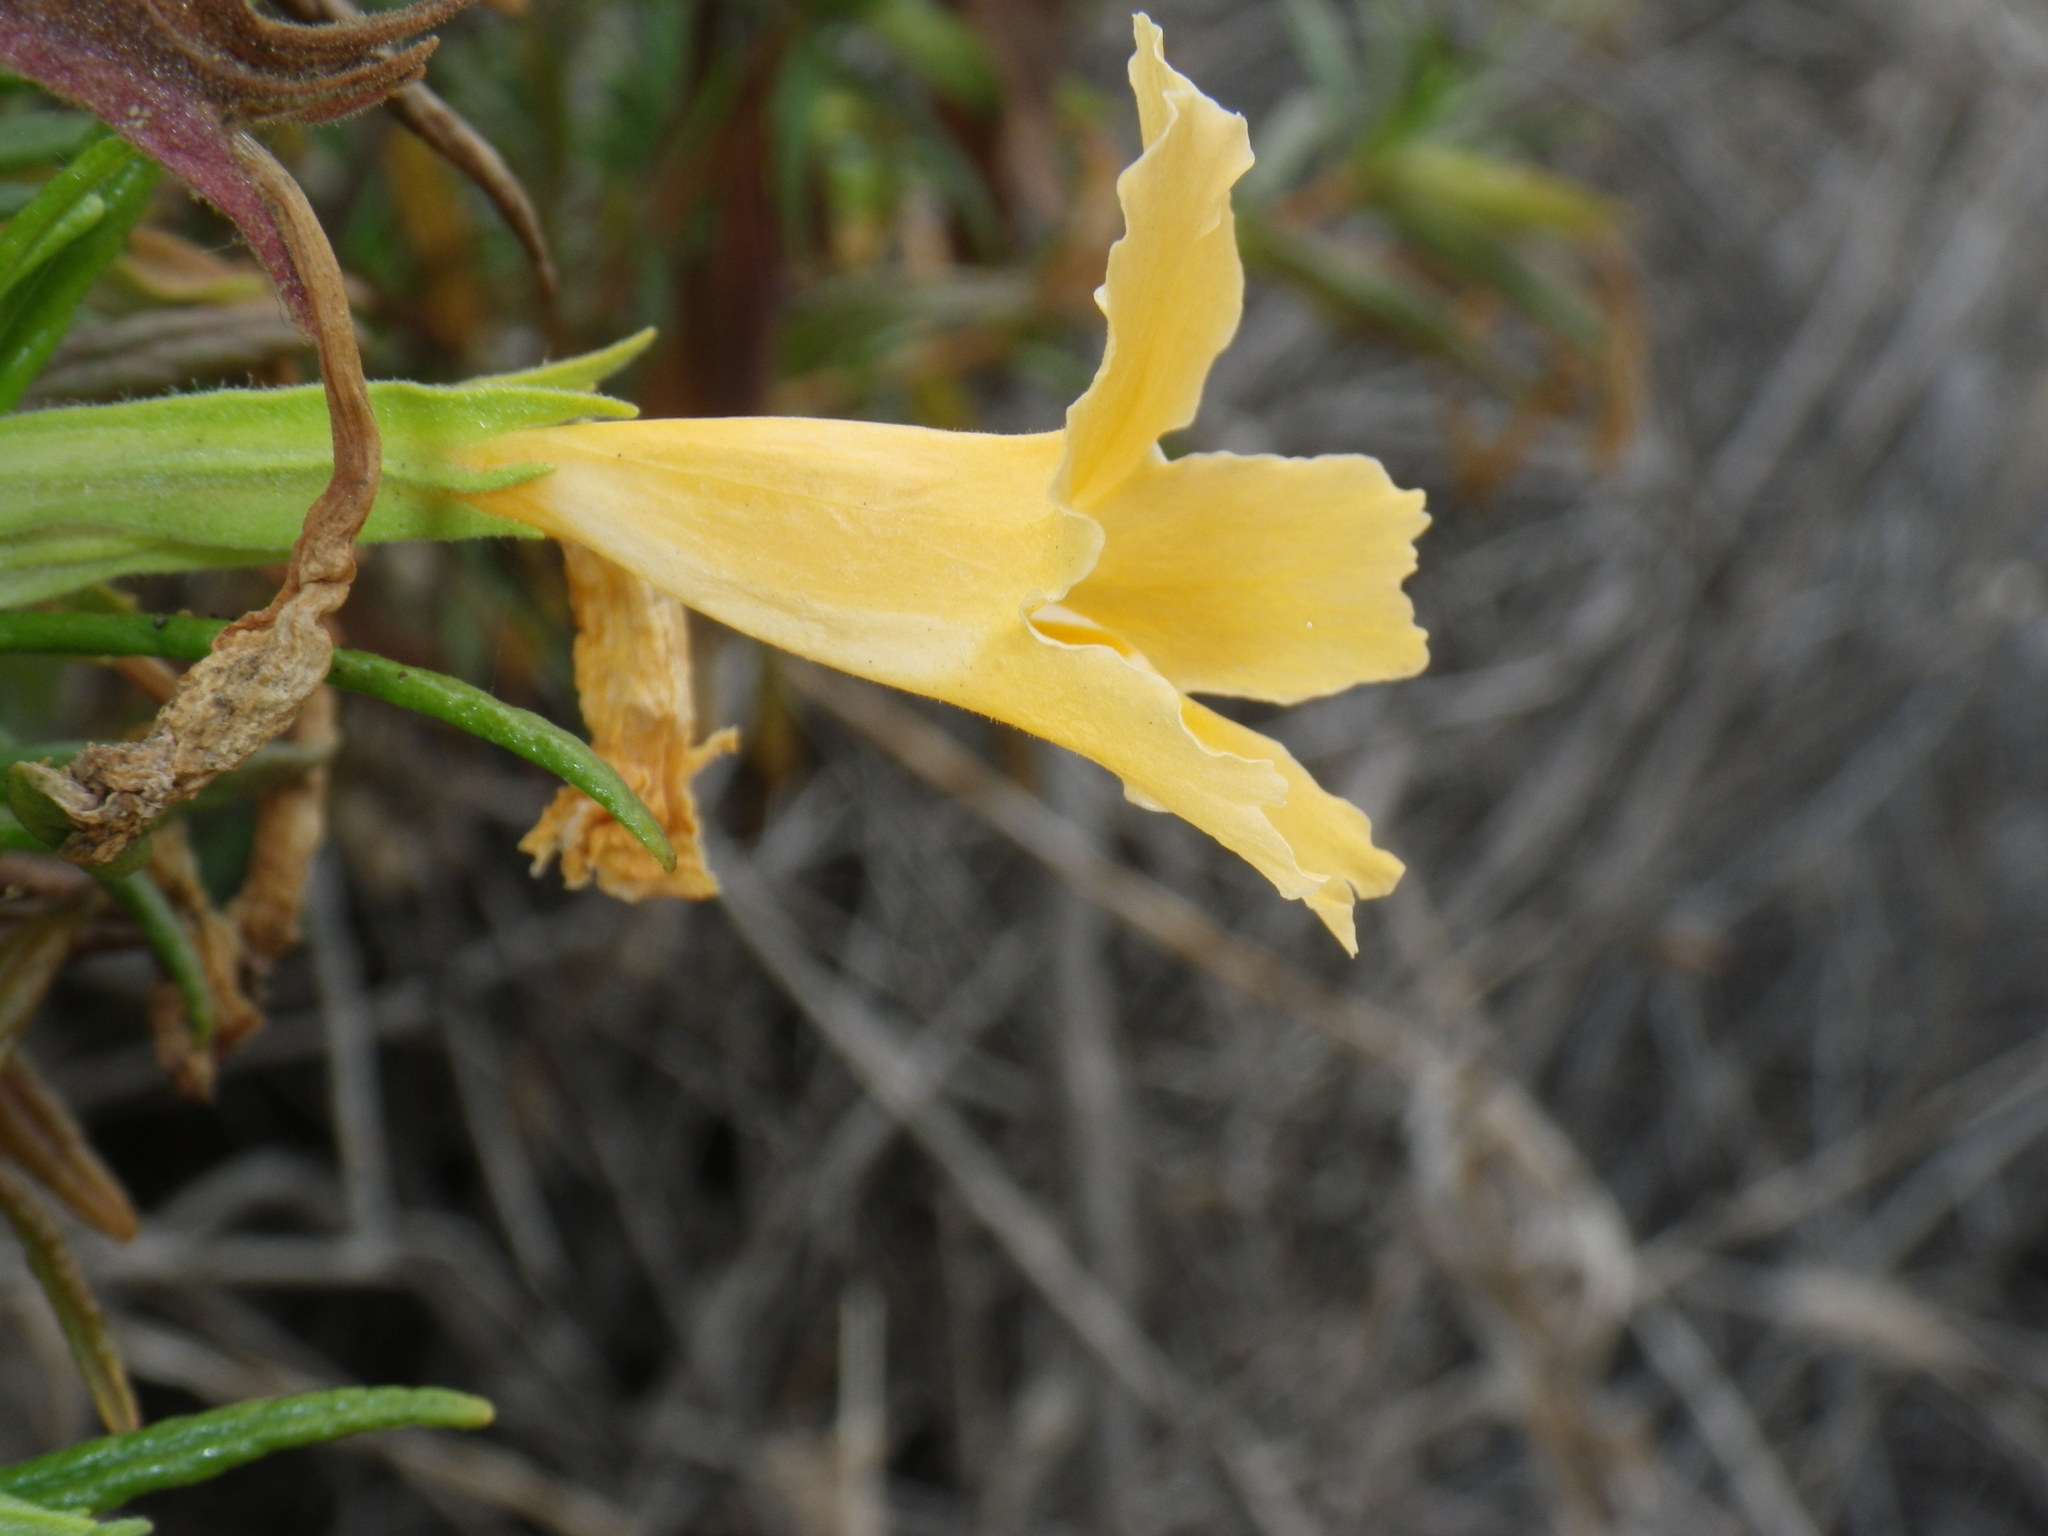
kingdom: Plantae
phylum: Tracheophyta
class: Magnoliopsida
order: Lamiales
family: Phrymaceae
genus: Diplacus
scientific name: Diplacus longiflorus
